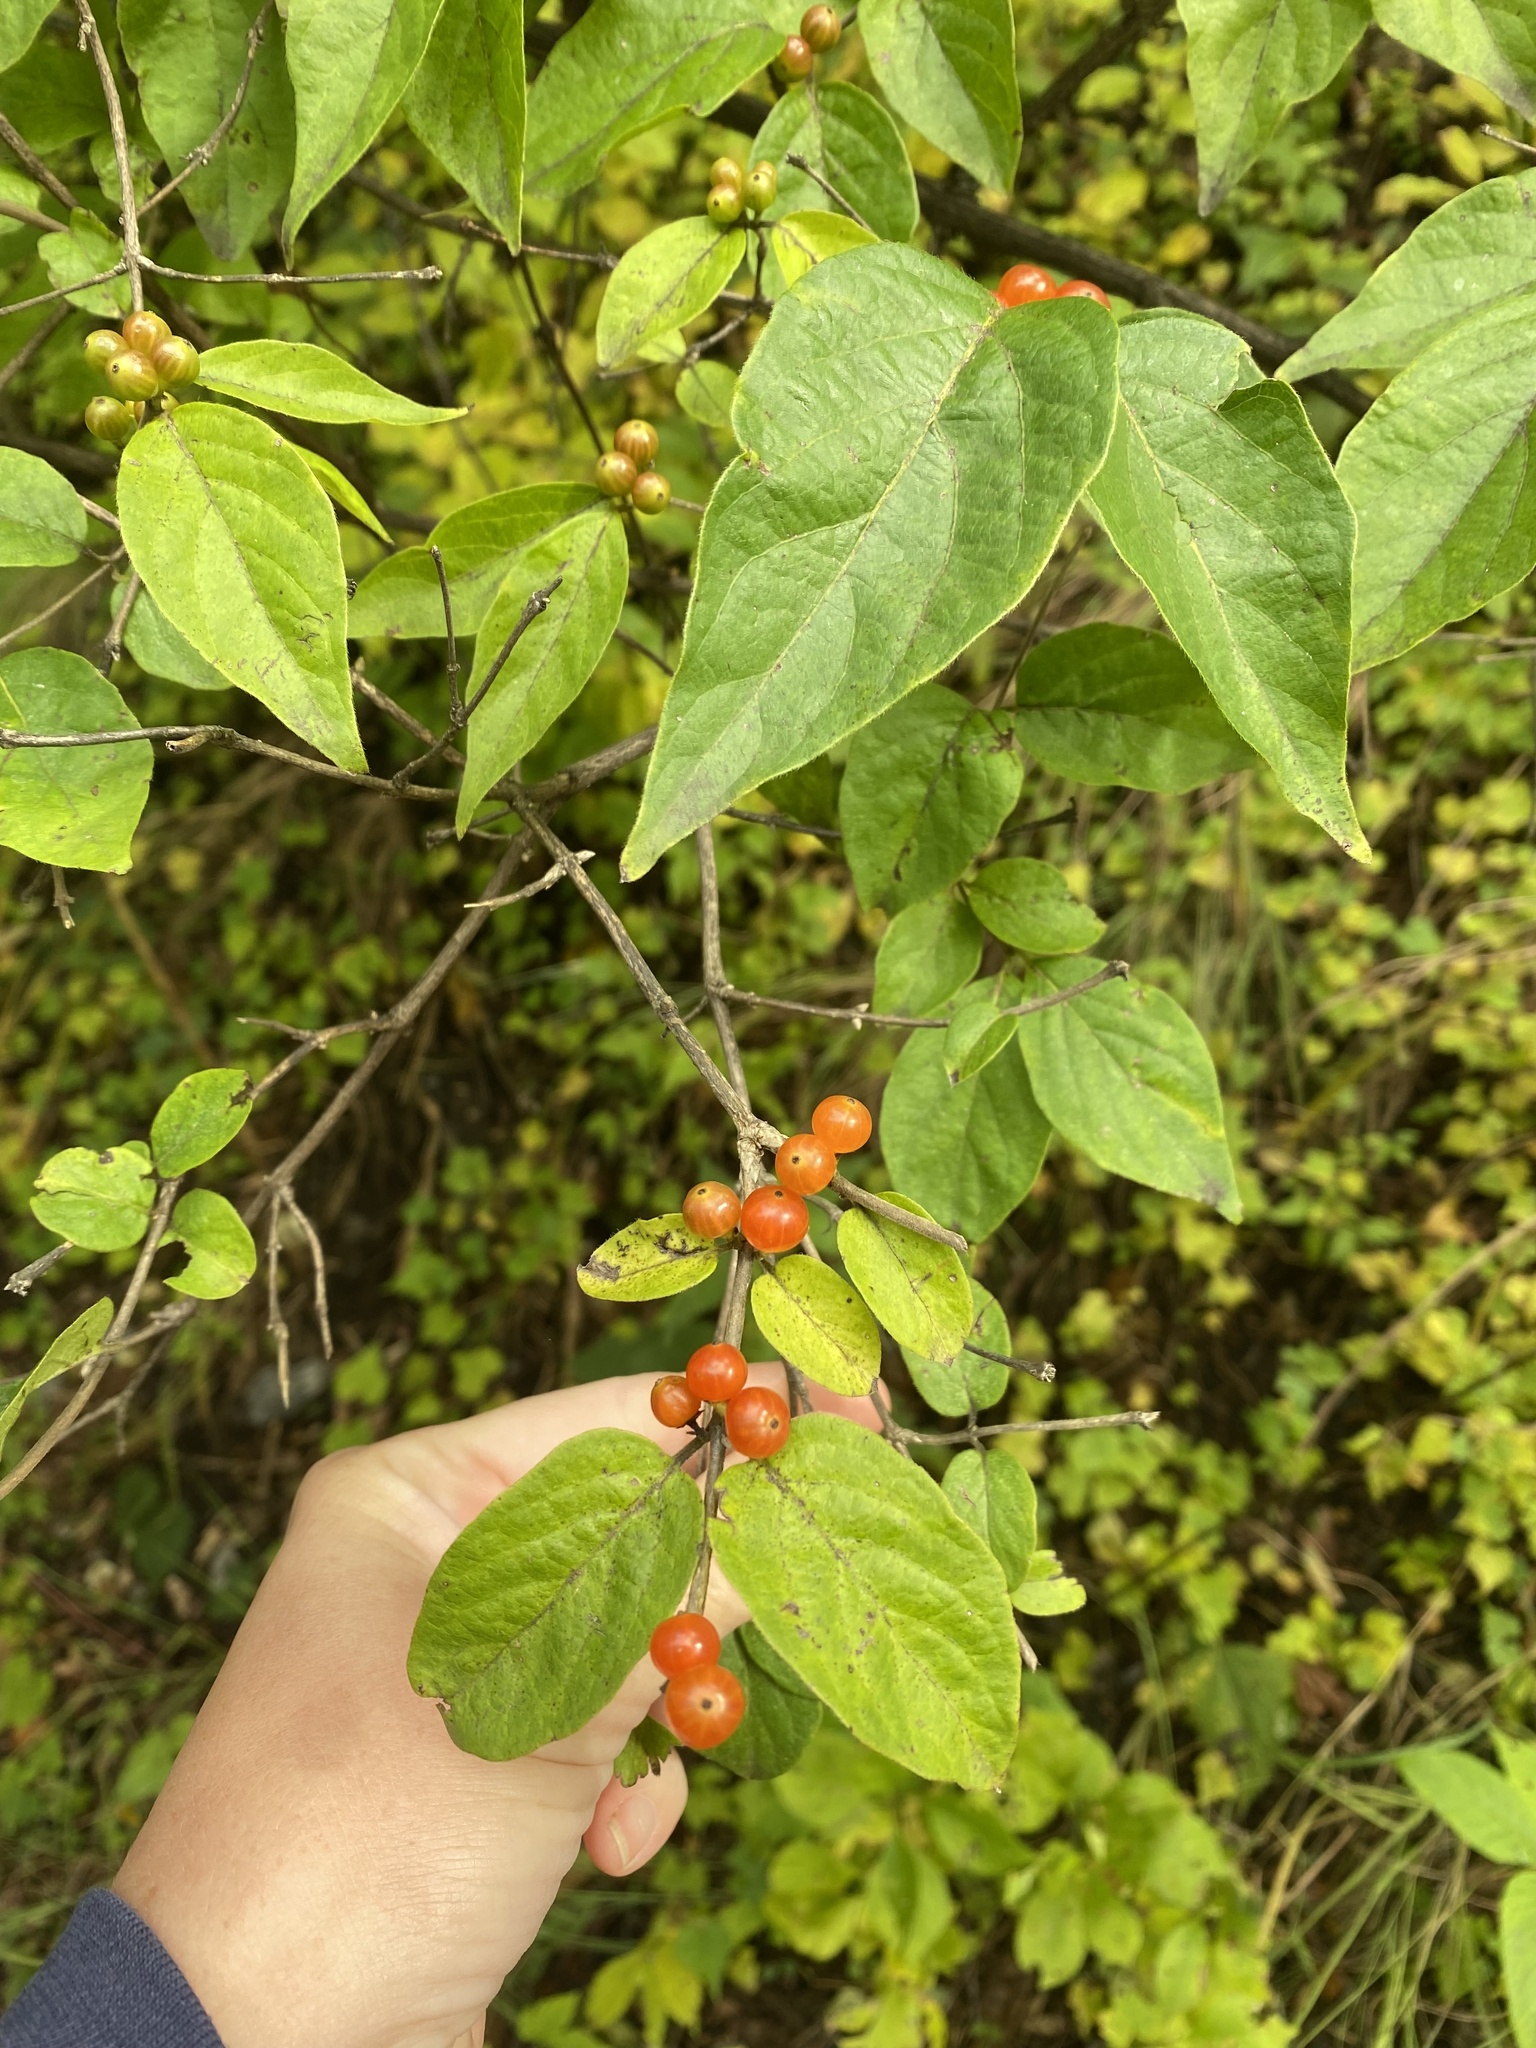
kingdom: Plantae
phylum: Tracheophyta
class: Magnoliopsida
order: Dipsacales
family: Caprifoliaceae
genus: Lonicera
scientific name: Lonicera maackii
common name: Amur honeysuckle
